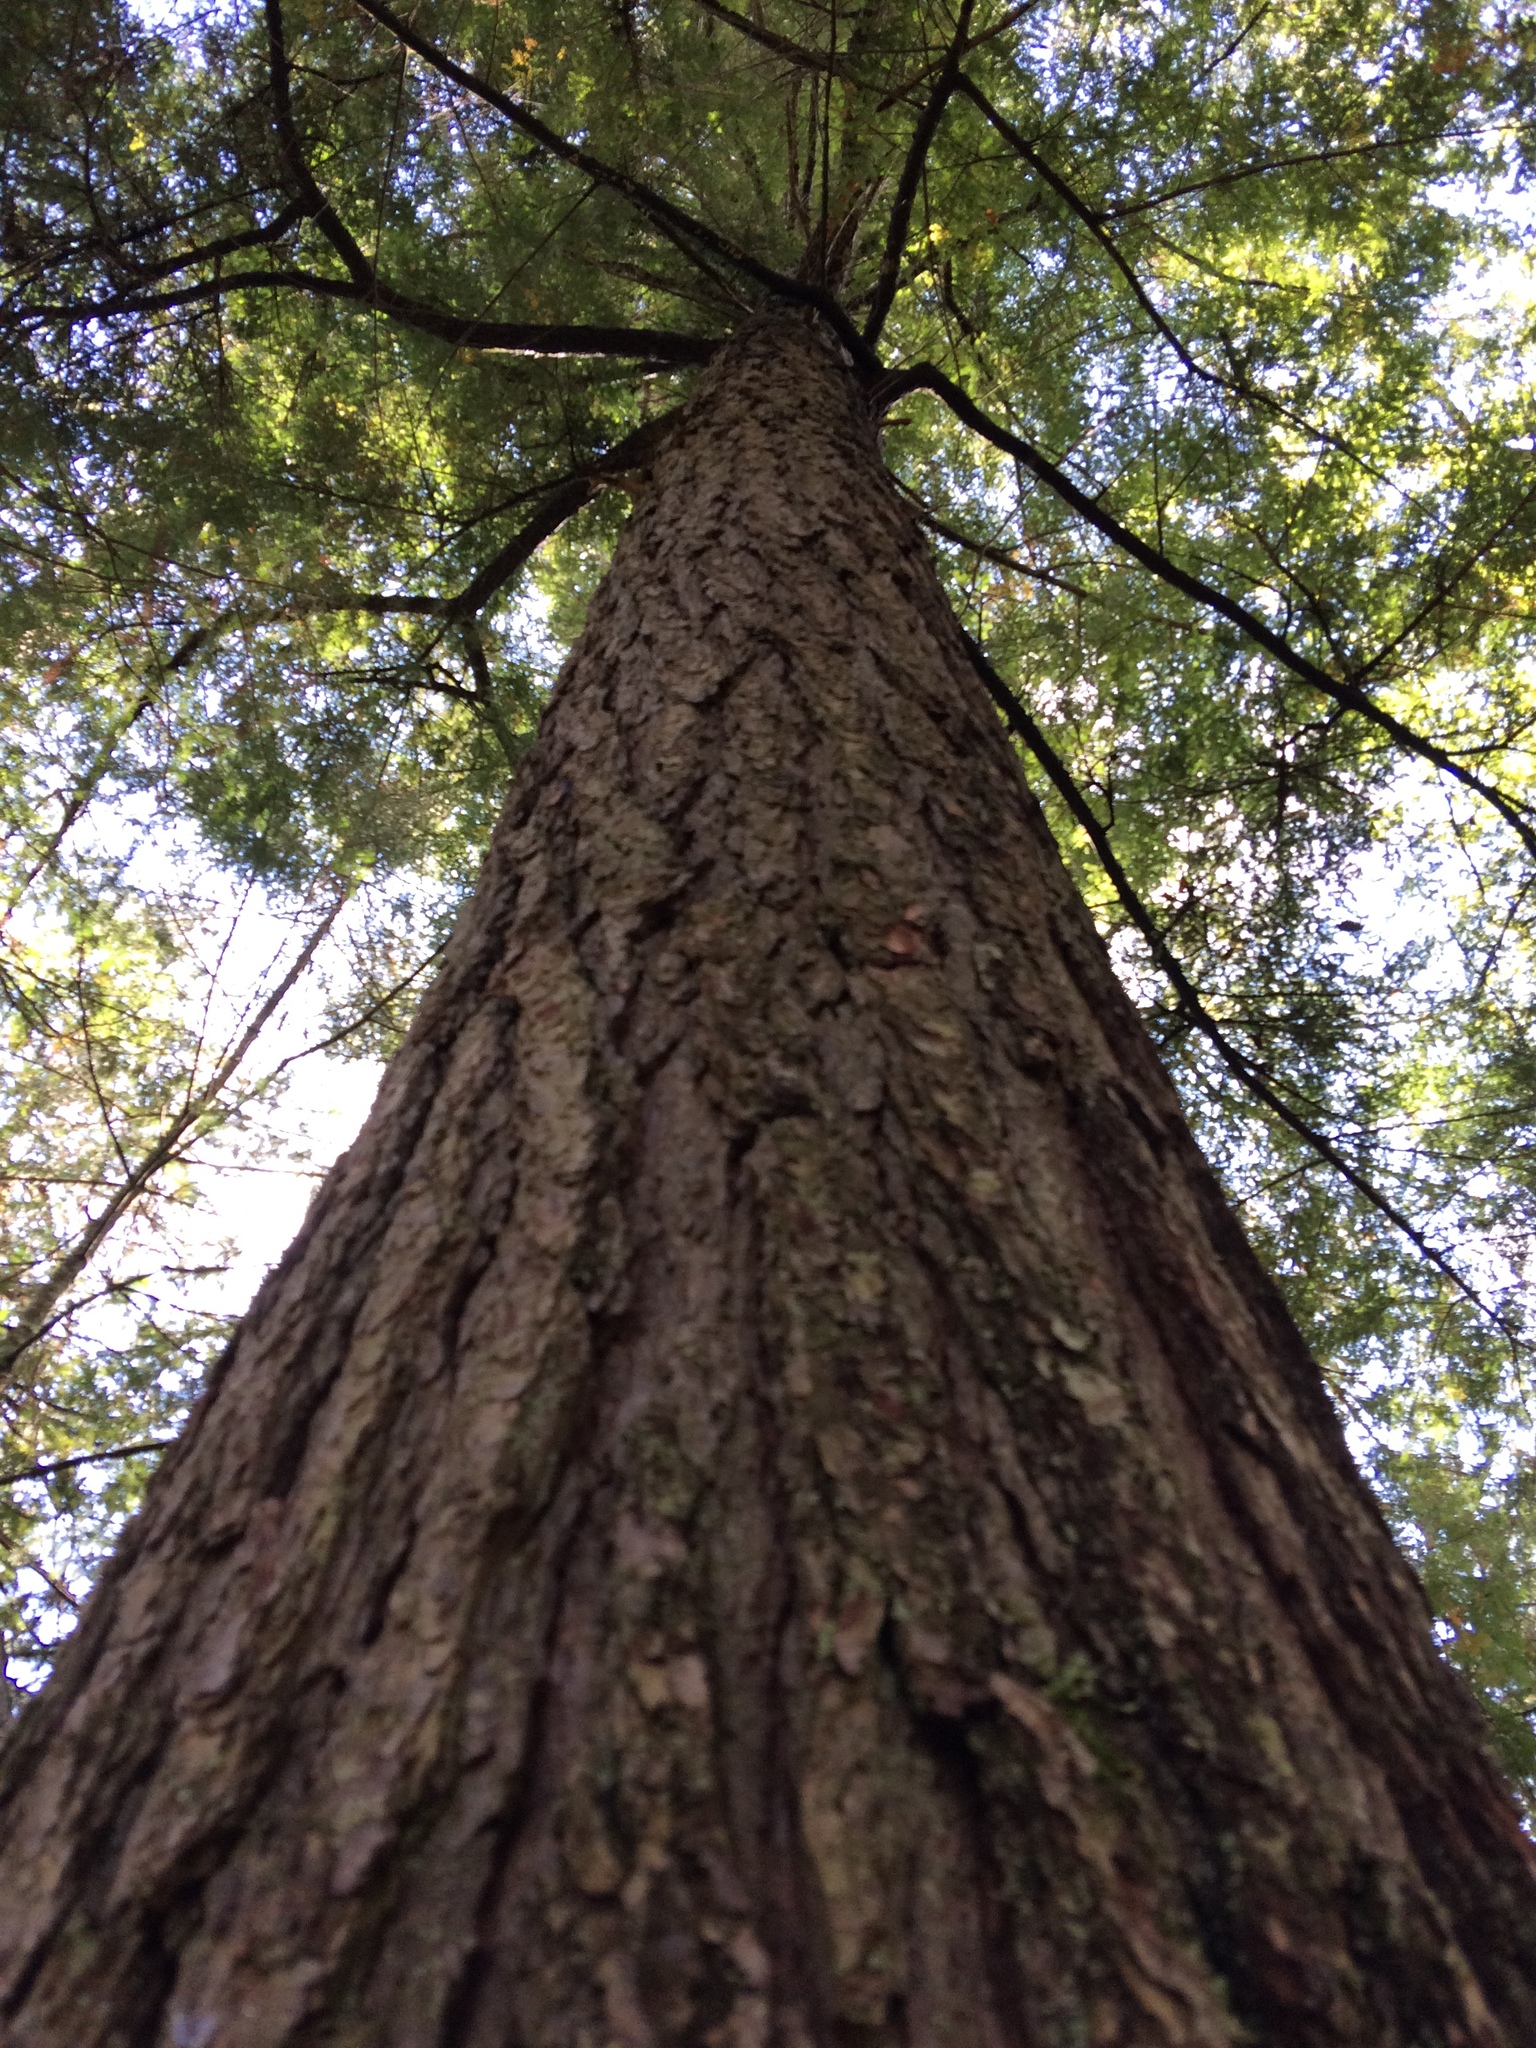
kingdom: Plantae
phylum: Tracheophyta
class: Pinopsida
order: Pinales
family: Pinaceae
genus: Tsuga
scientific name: Tsuga canadensis
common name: Eastern hemlock
